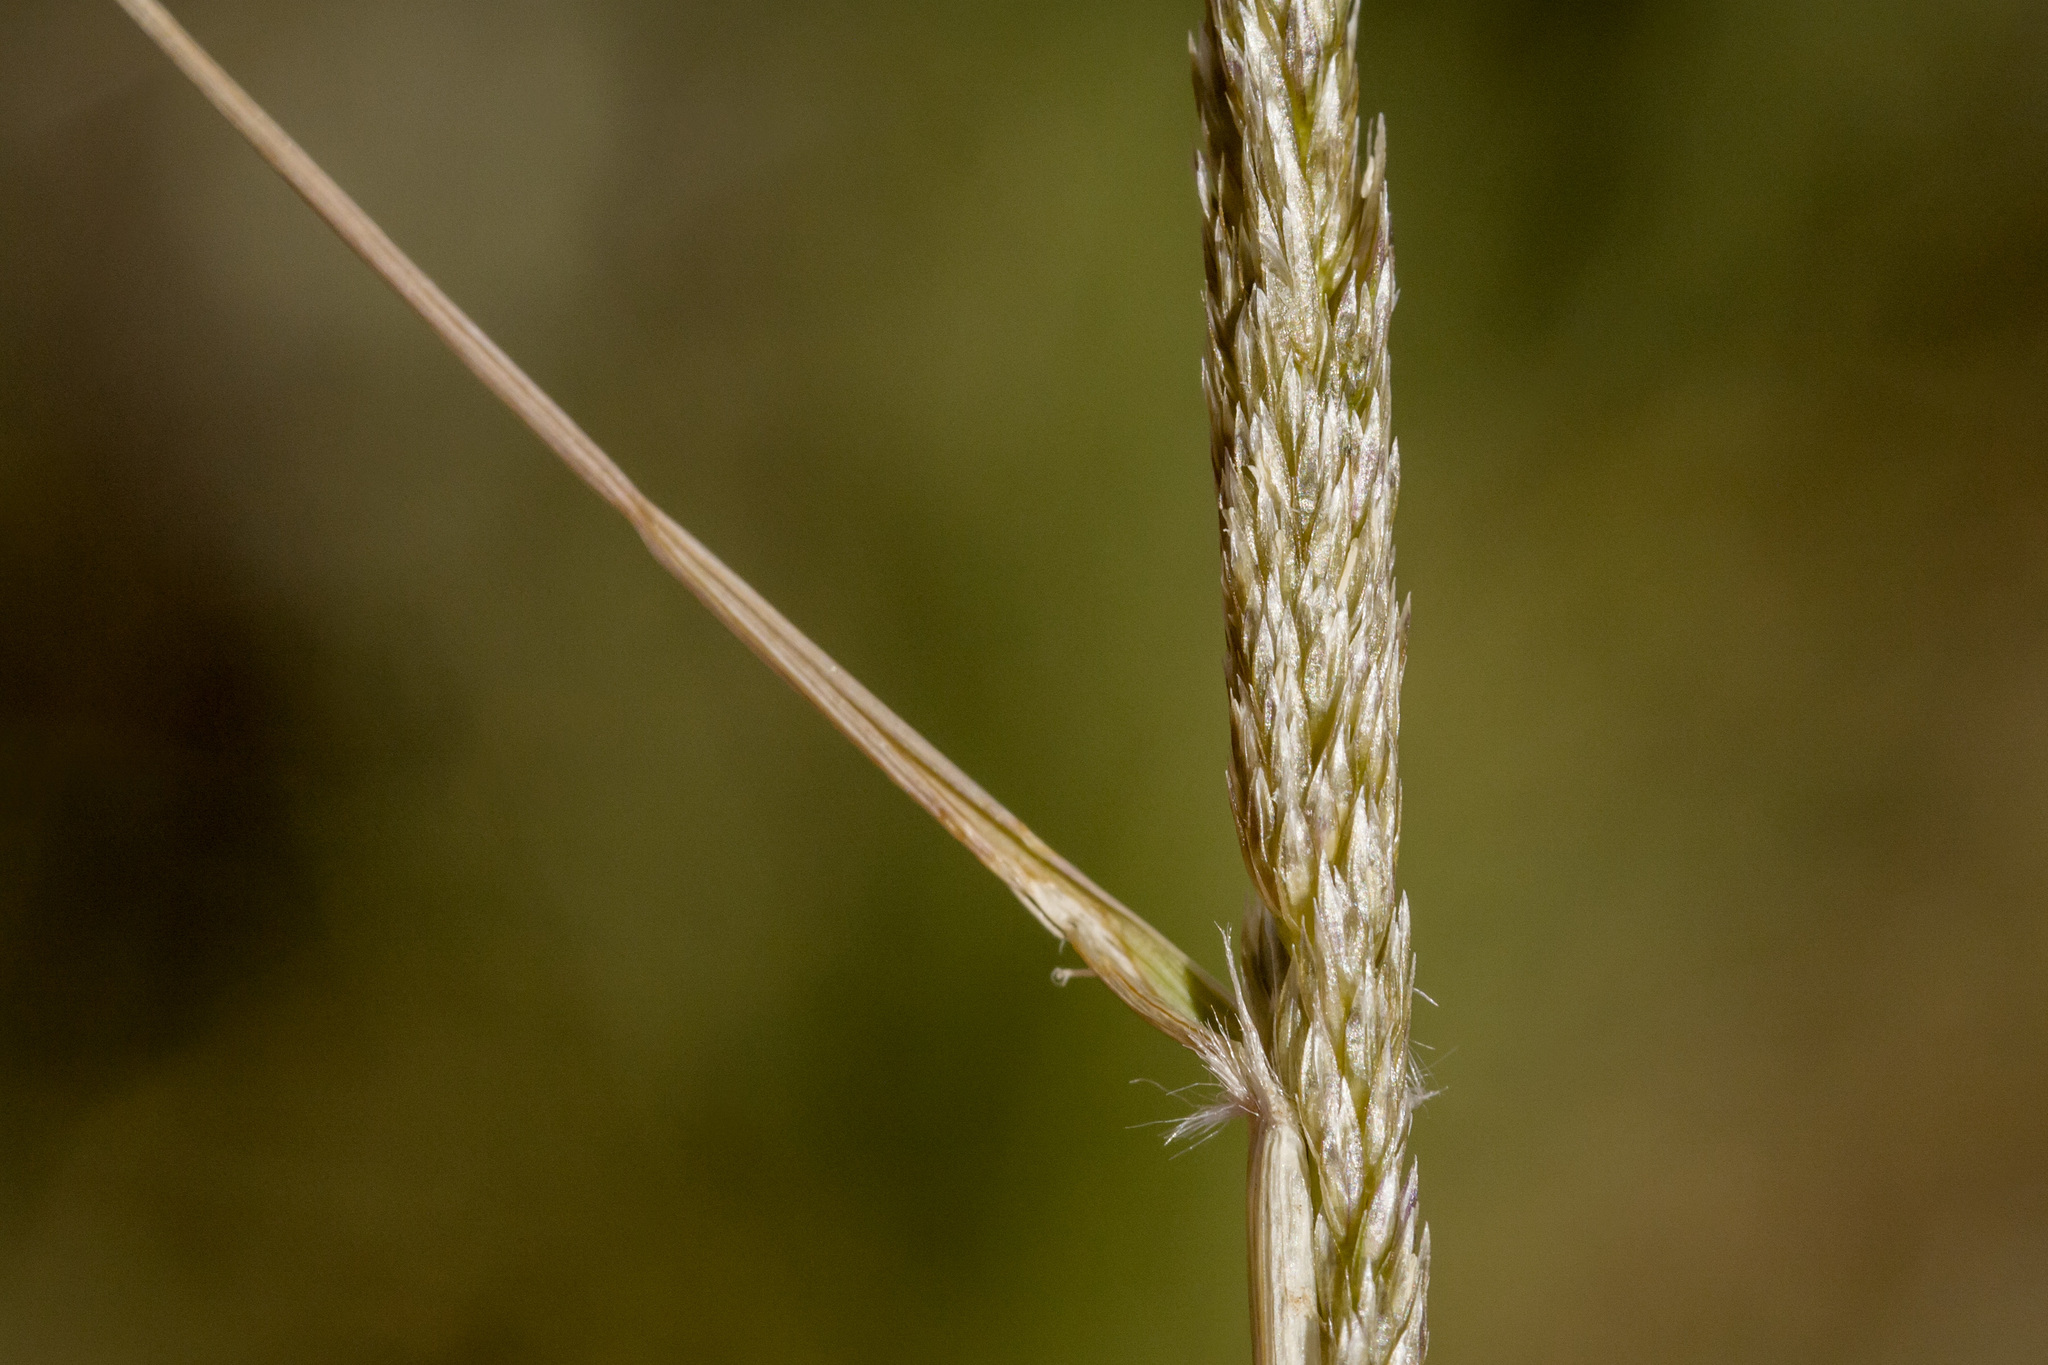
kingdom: Plantae
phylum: Tracheophyta
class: Liliopsida
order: Poales
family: Poaceae
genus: Sporobolus
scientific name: Sporobolus contractus
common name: Spike dropseed
